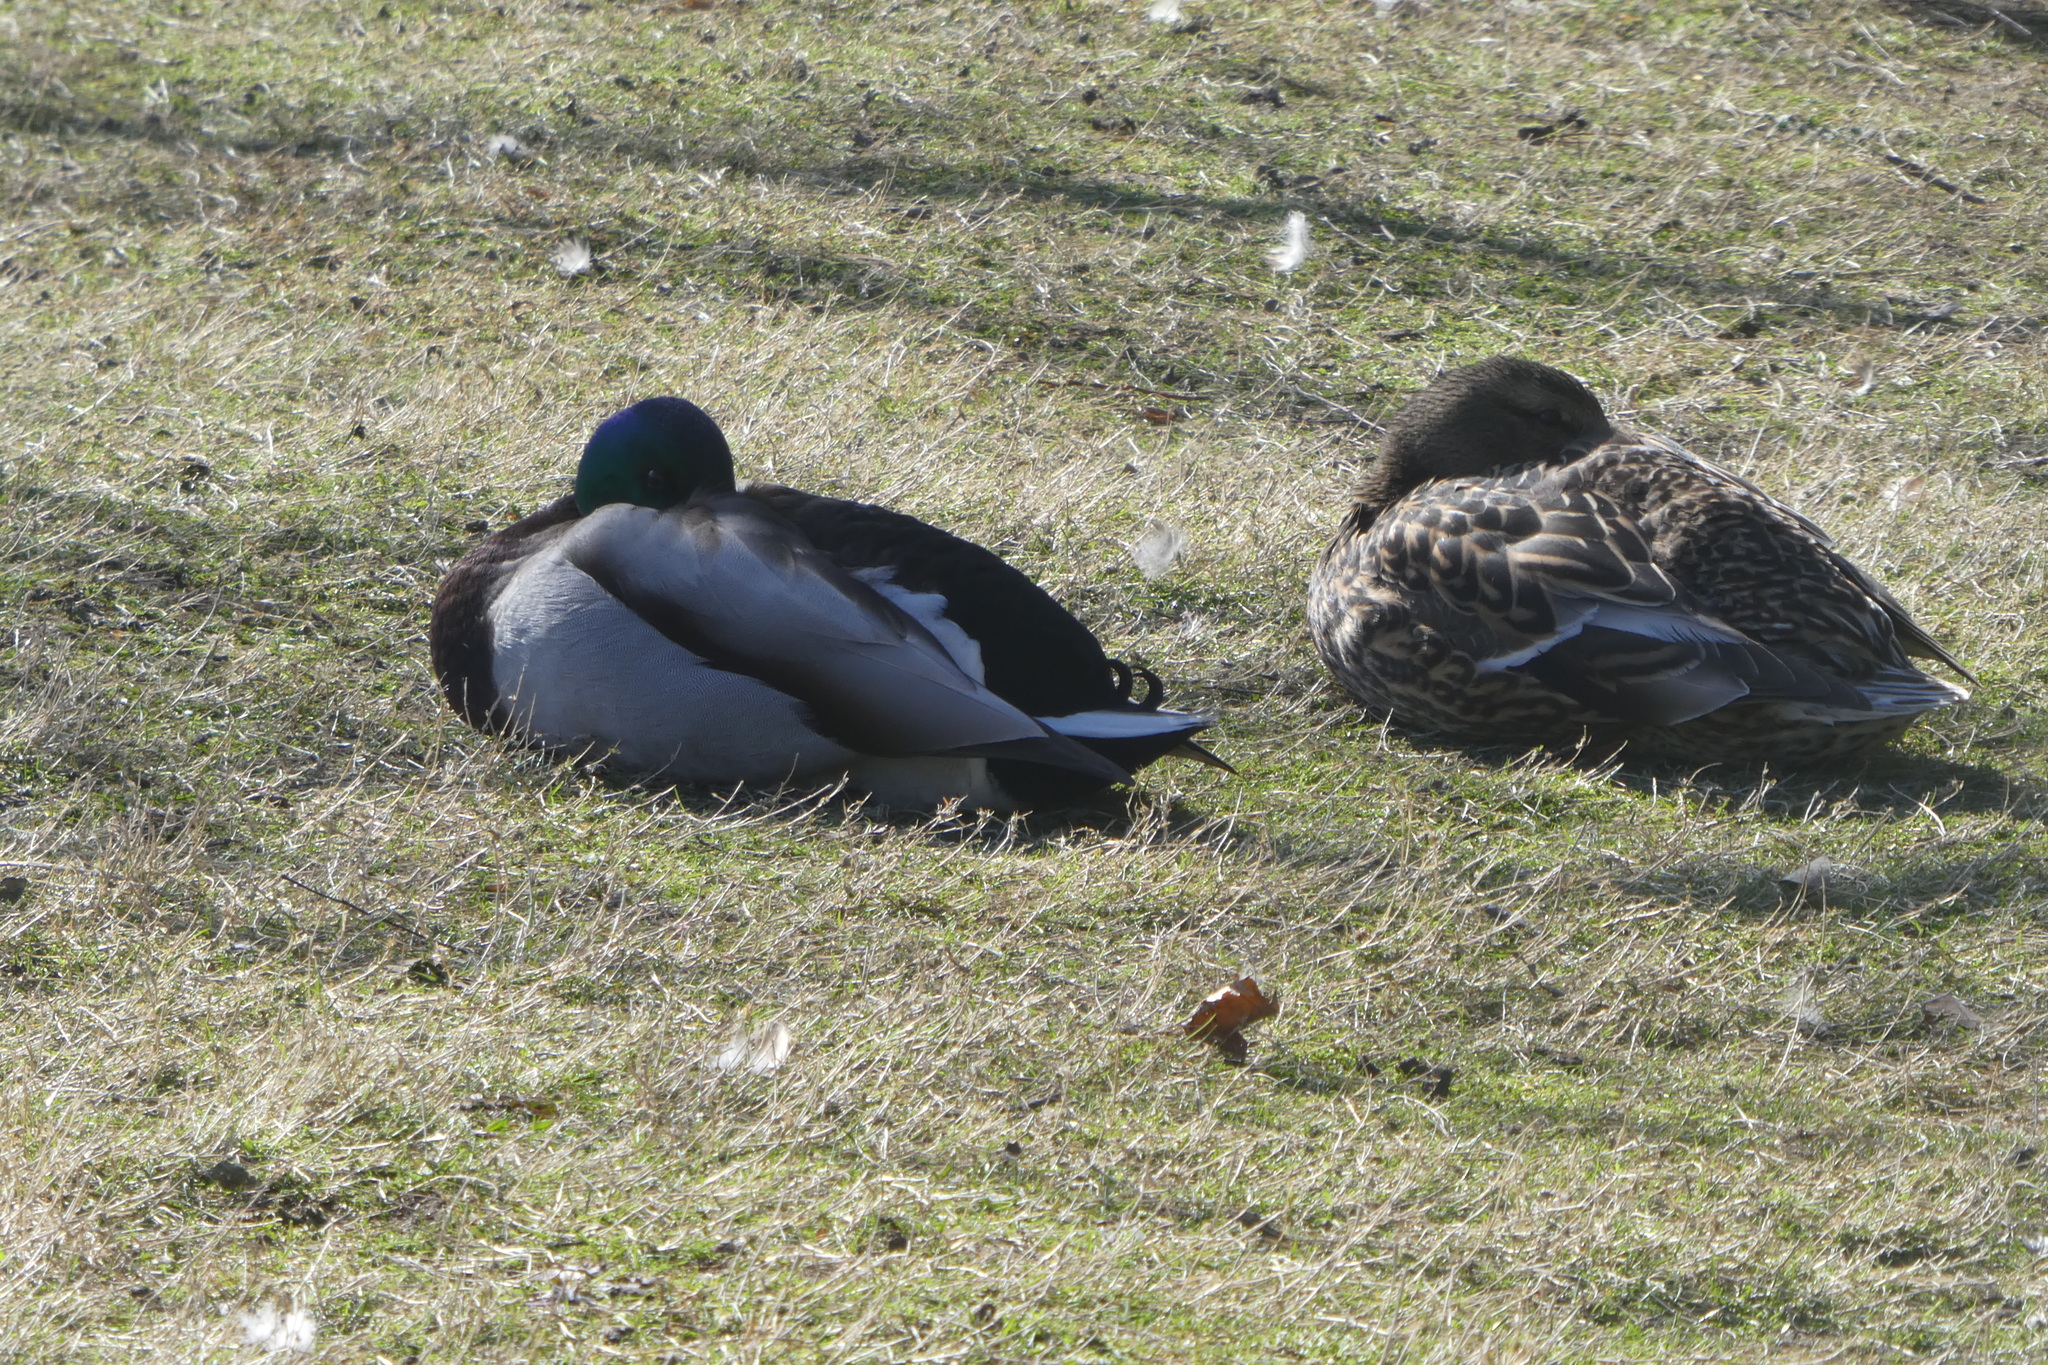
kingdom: Animalia
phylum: Chordata
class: Aves
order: Anseriformes
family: Anatidae
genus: Anas
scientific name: Anas platyrhynchos
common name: Mallard
